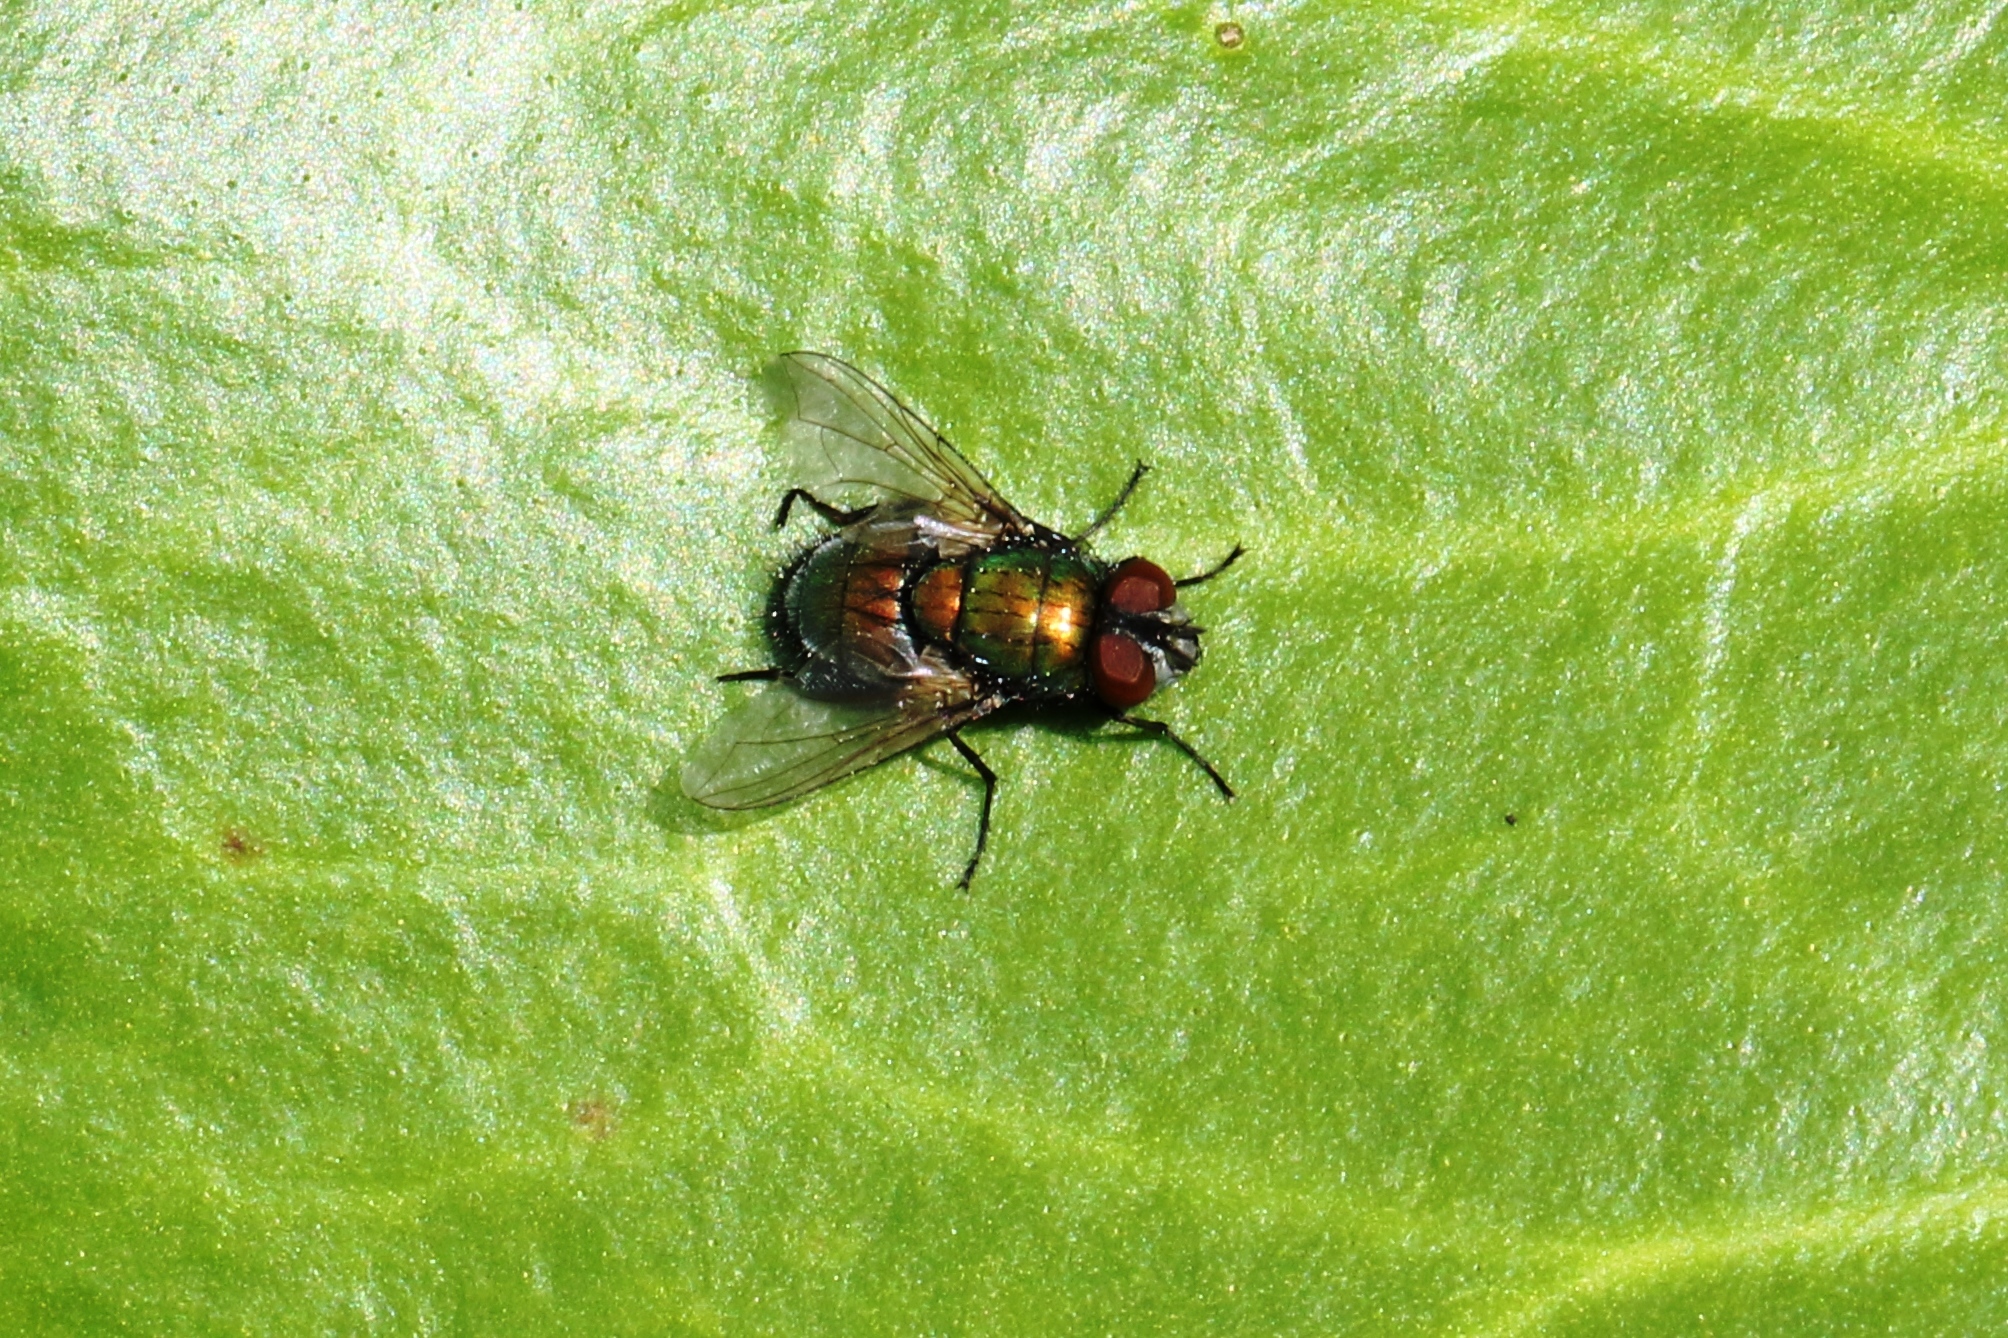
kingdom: Animalia
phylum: Arthropoda
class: Insecta
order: Diptera
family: Calliphoridae
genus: Lucilia
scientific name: Lucilia sericata
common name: Blow fly
